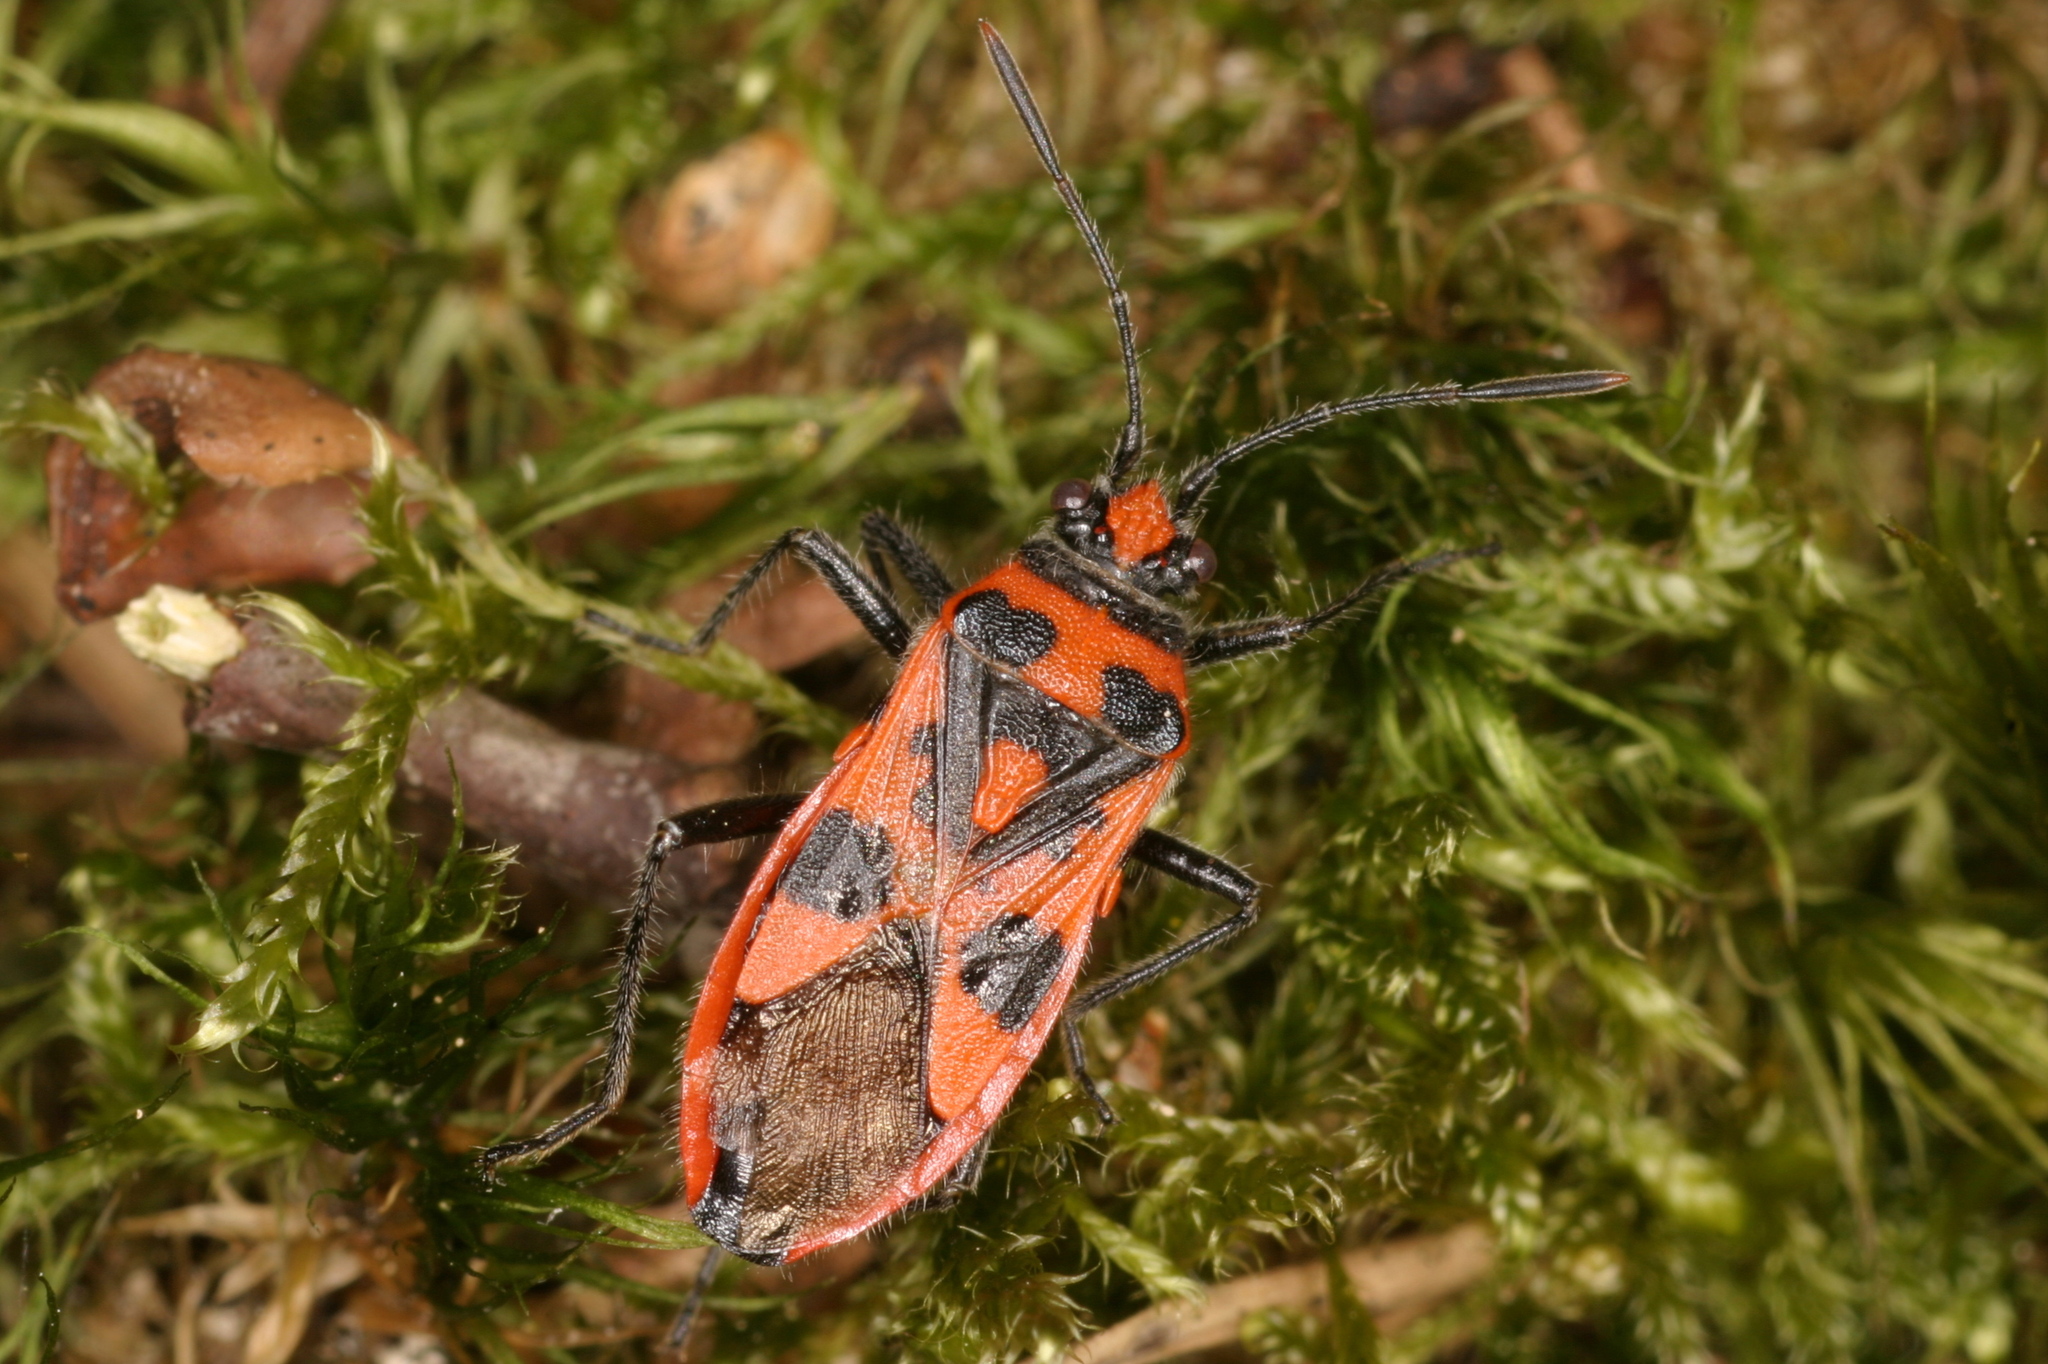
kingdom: Animalia
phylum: Arthropoda
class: Insecta
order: Hemiptera
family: Rhopalidae
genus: Corizus
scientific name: Corizus hyoscyami
